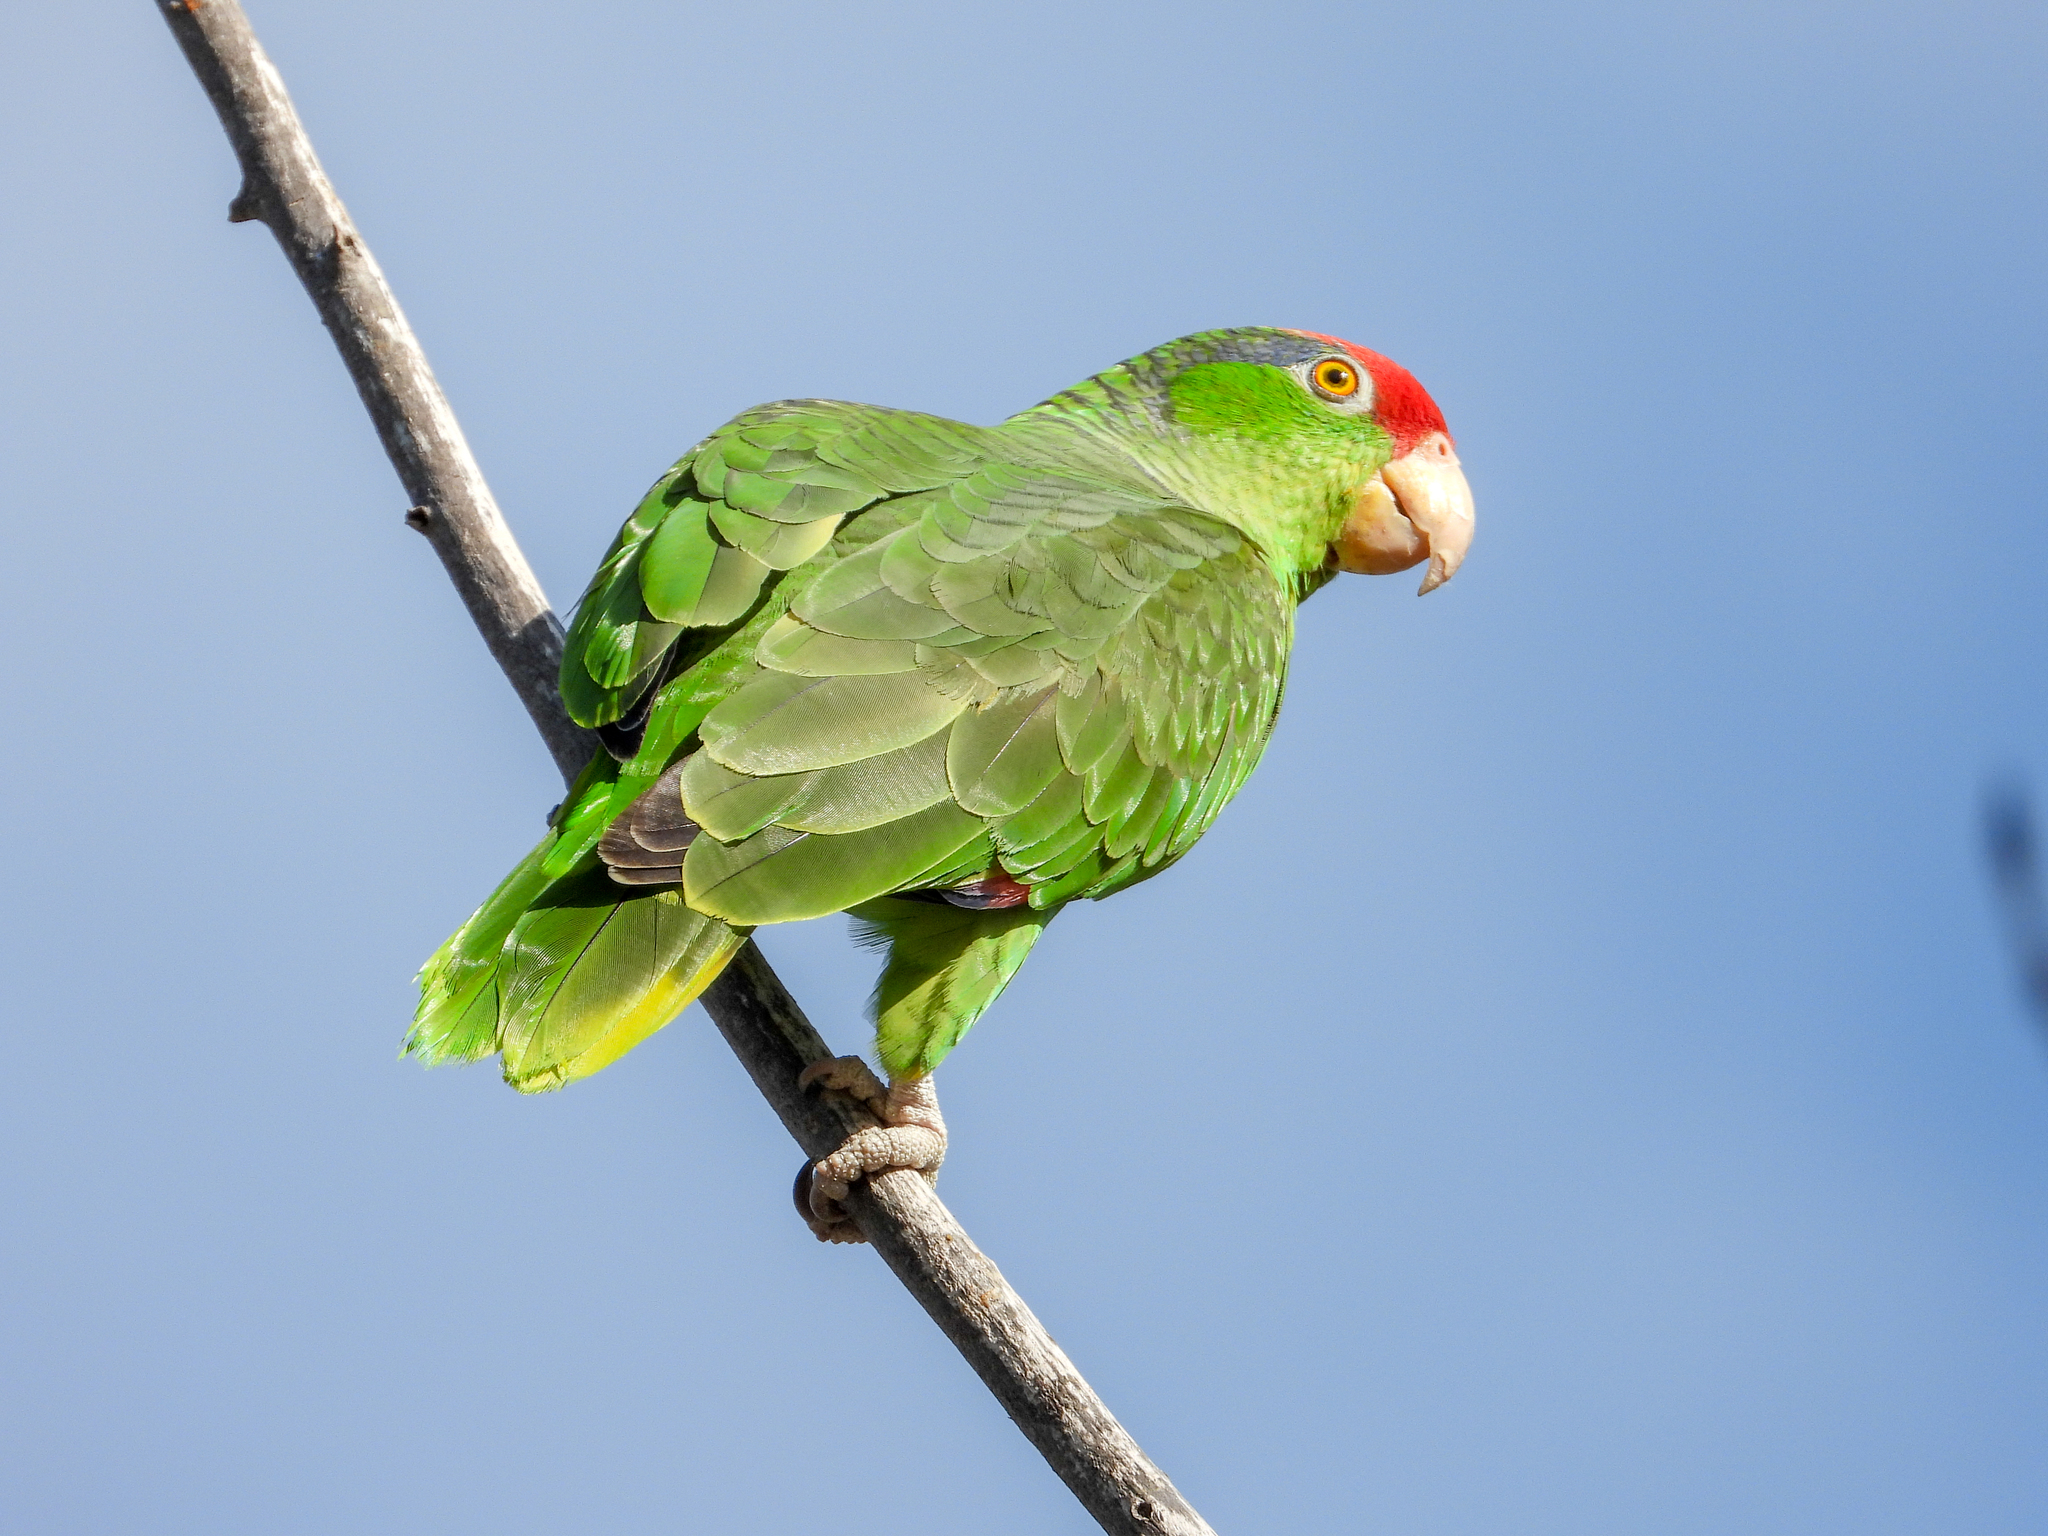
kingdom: Animalia
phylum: Chordata
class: Aves
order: Psittaciformes
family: Psittacidae
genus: Amazona
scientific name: Amazona viridigenalis
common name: Red-crowned amazon
